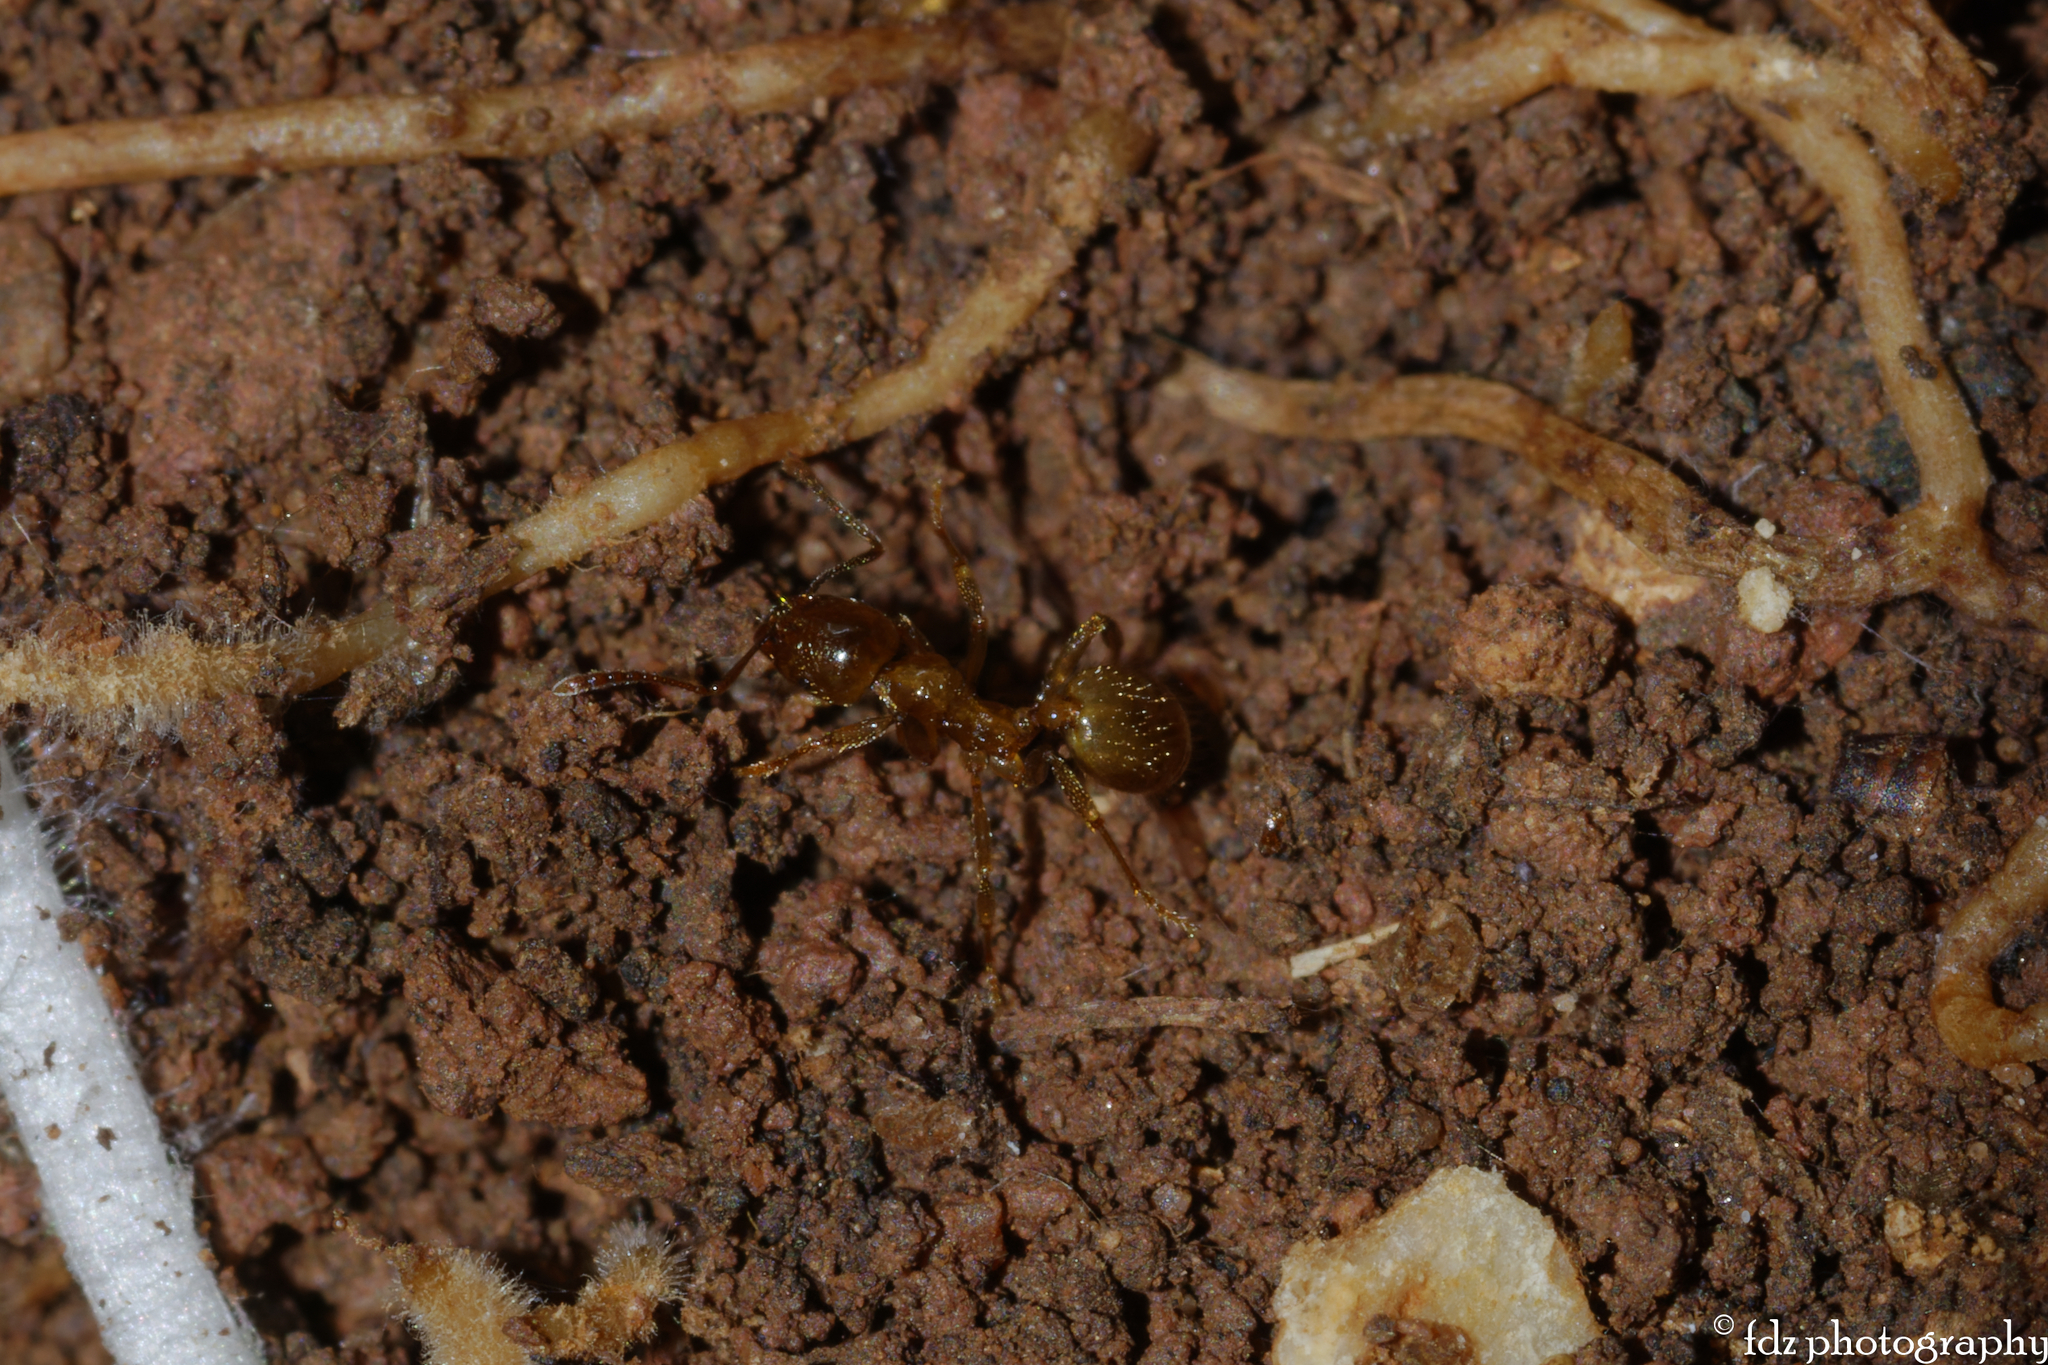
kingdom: Animalia
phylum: Arthropoda
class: Insecta
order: Hymenoptera
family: Formicidae
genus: Aphaenogaster
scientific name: Aphaenogaster dulcineae
